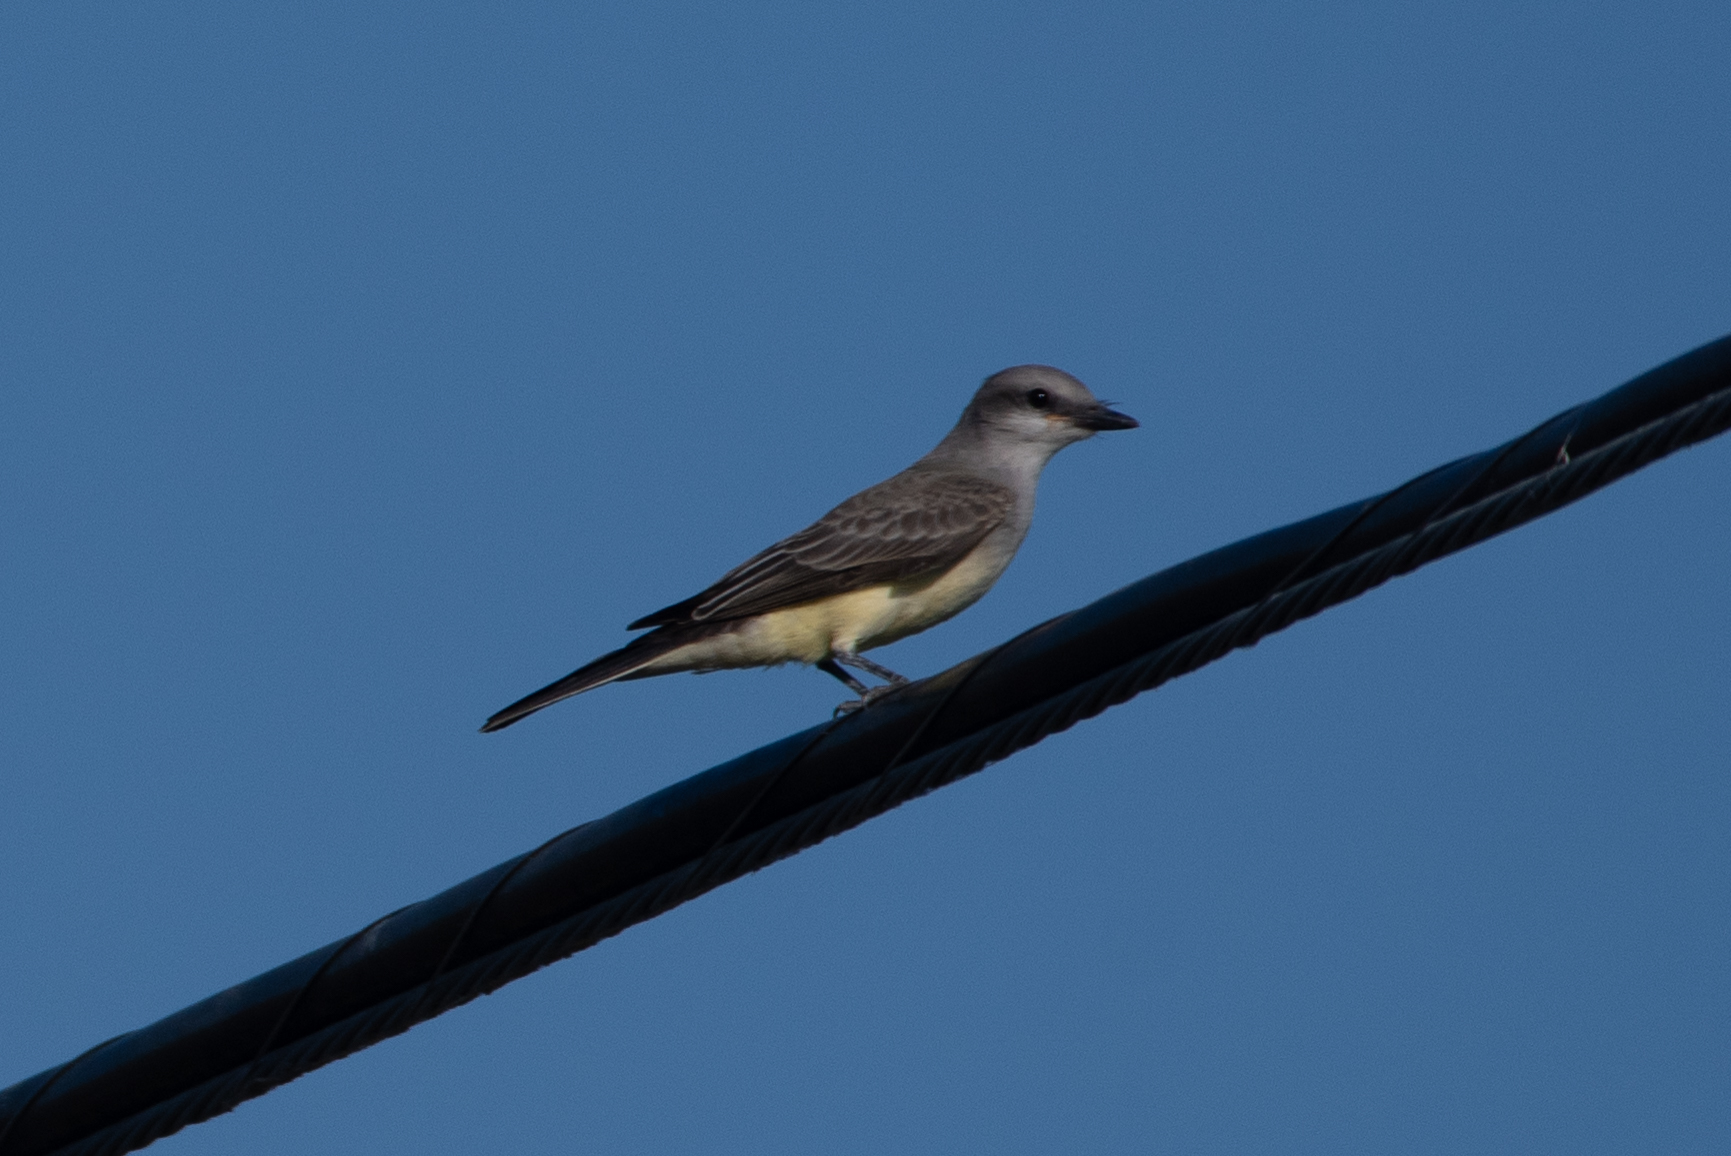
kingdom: Animalia
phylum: Chordata
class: Aves
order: Passeriformes
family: Tyrannidae
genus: Tyrannus
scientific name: Tyrannus verticalis
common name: Western kingbird
